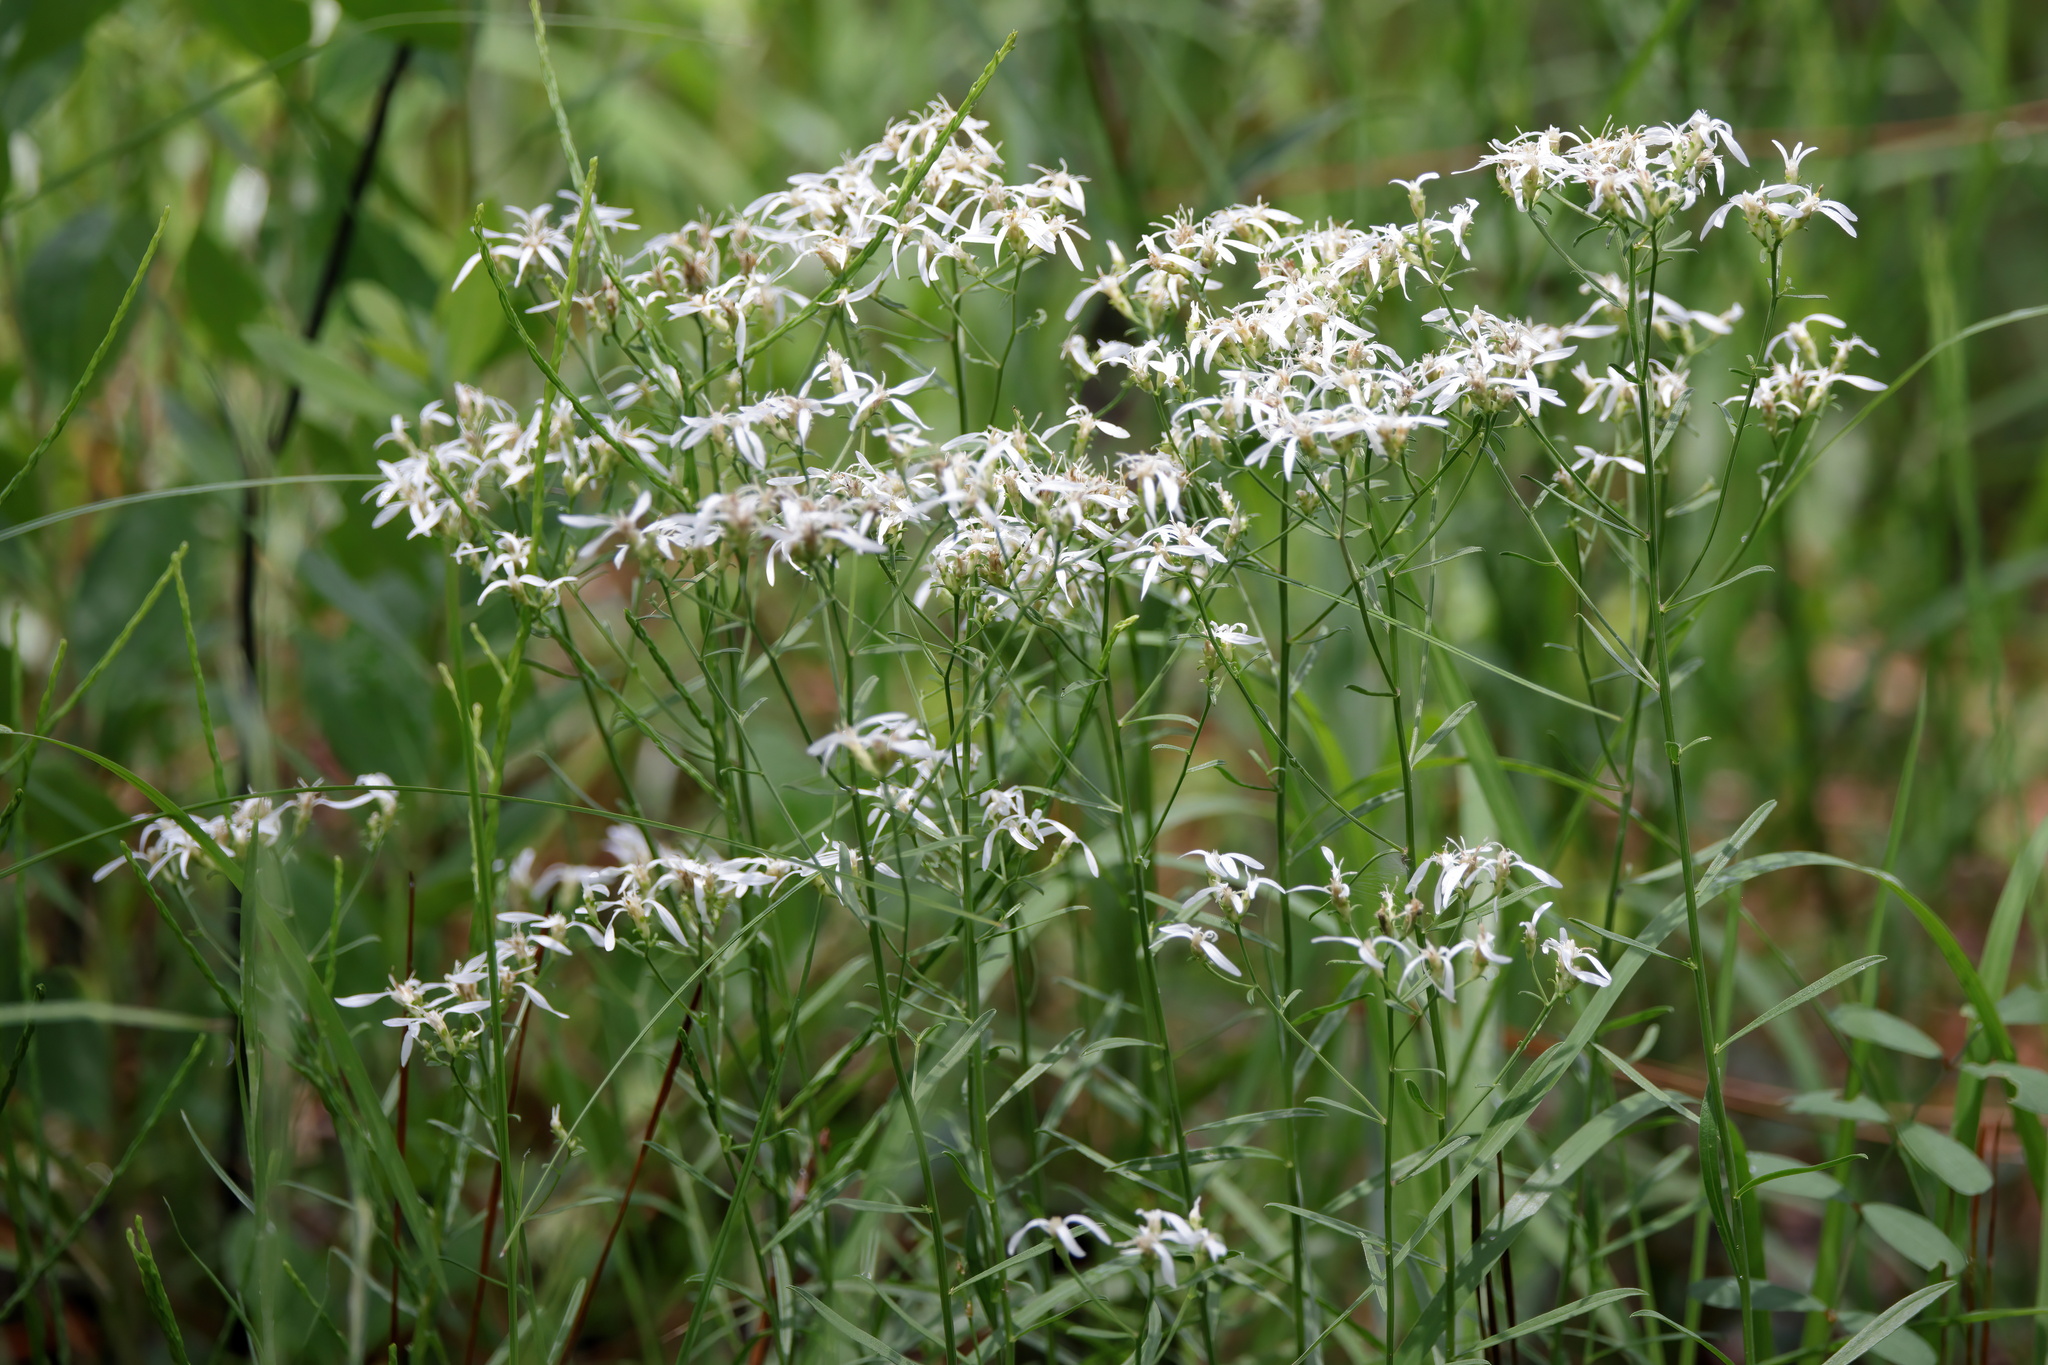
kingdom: Plantae
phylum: Tracheophyta
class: Magnoliopsida
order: Asterales
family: Asteraceae
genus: Sericocarpus
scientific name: Sericocarpus linifolius
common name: Narrow-leaf aster
